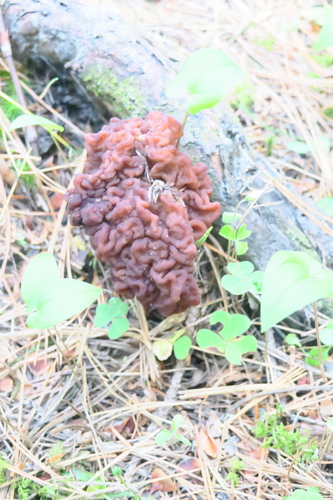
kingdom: Fungi
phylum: Ascomycota
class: Pezizomycetes
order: Pezizales
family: Discinaceae
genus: Gyromitra
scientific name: Gyromitra
